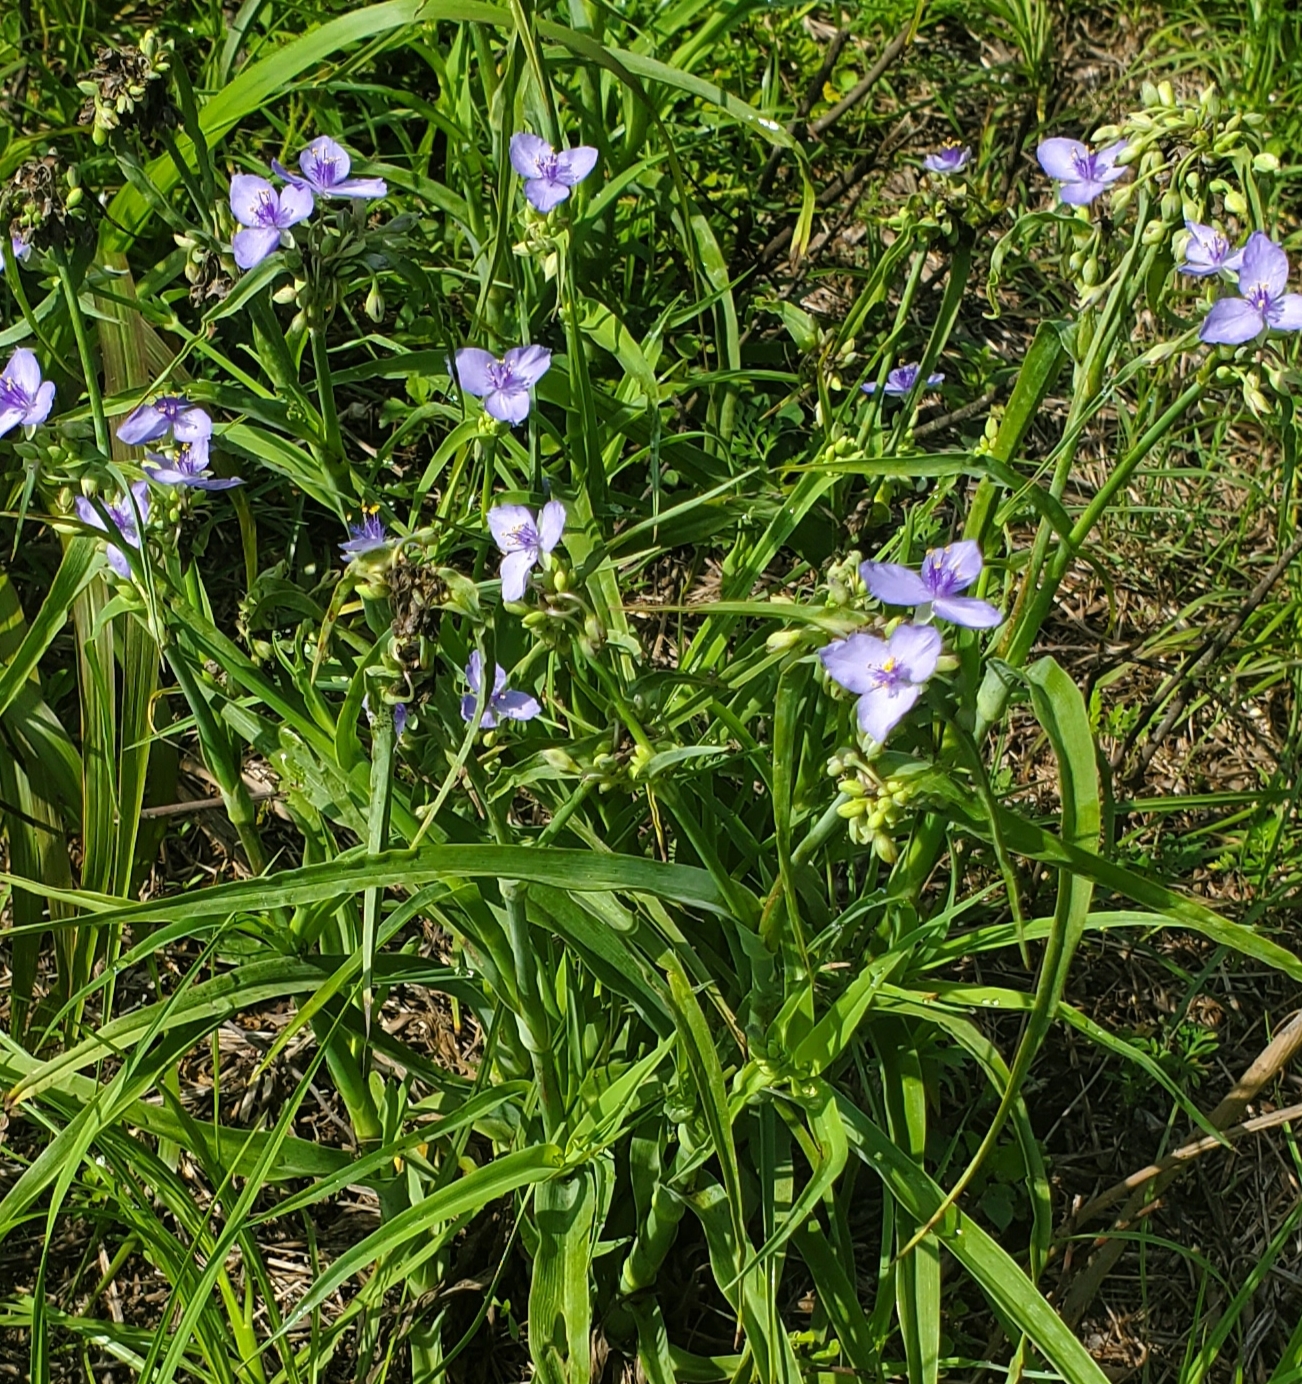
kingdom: Plantae
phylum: Tracheophyta
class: Liliopsida
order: Commelinales
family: Commelinaceae
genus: Tradescantia
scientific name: Tradescantia ohiensis
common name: Ohio spiderwort
